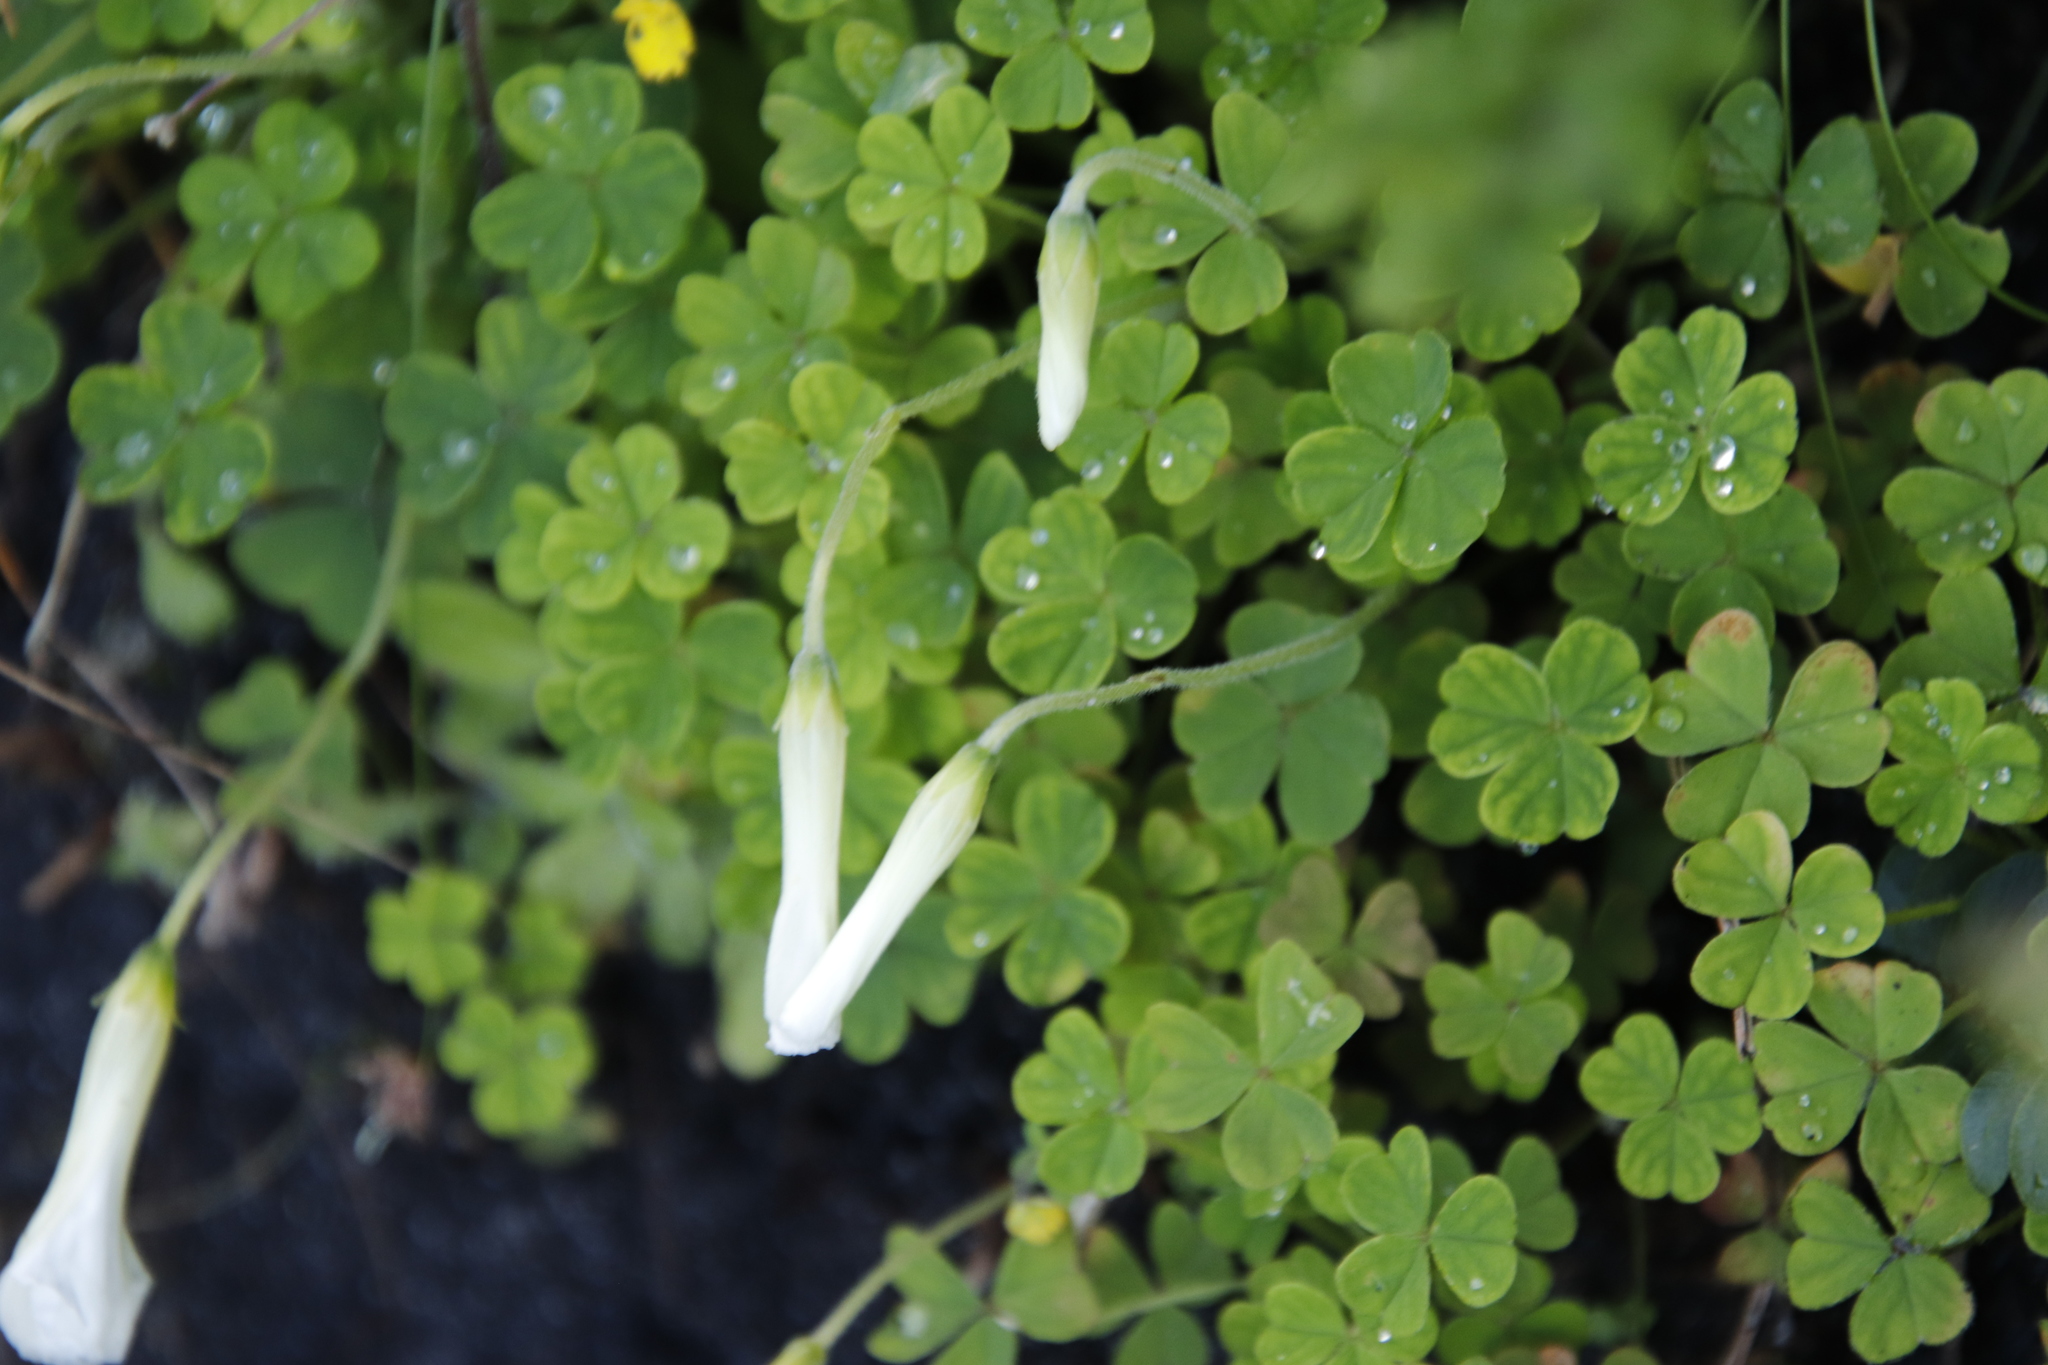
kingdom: Plantae
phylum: Tracheophyta
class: Magnoliopsida
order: Oxalidales
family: Oxalidaceae
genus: Oxalis
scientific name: Oxalis lanata
